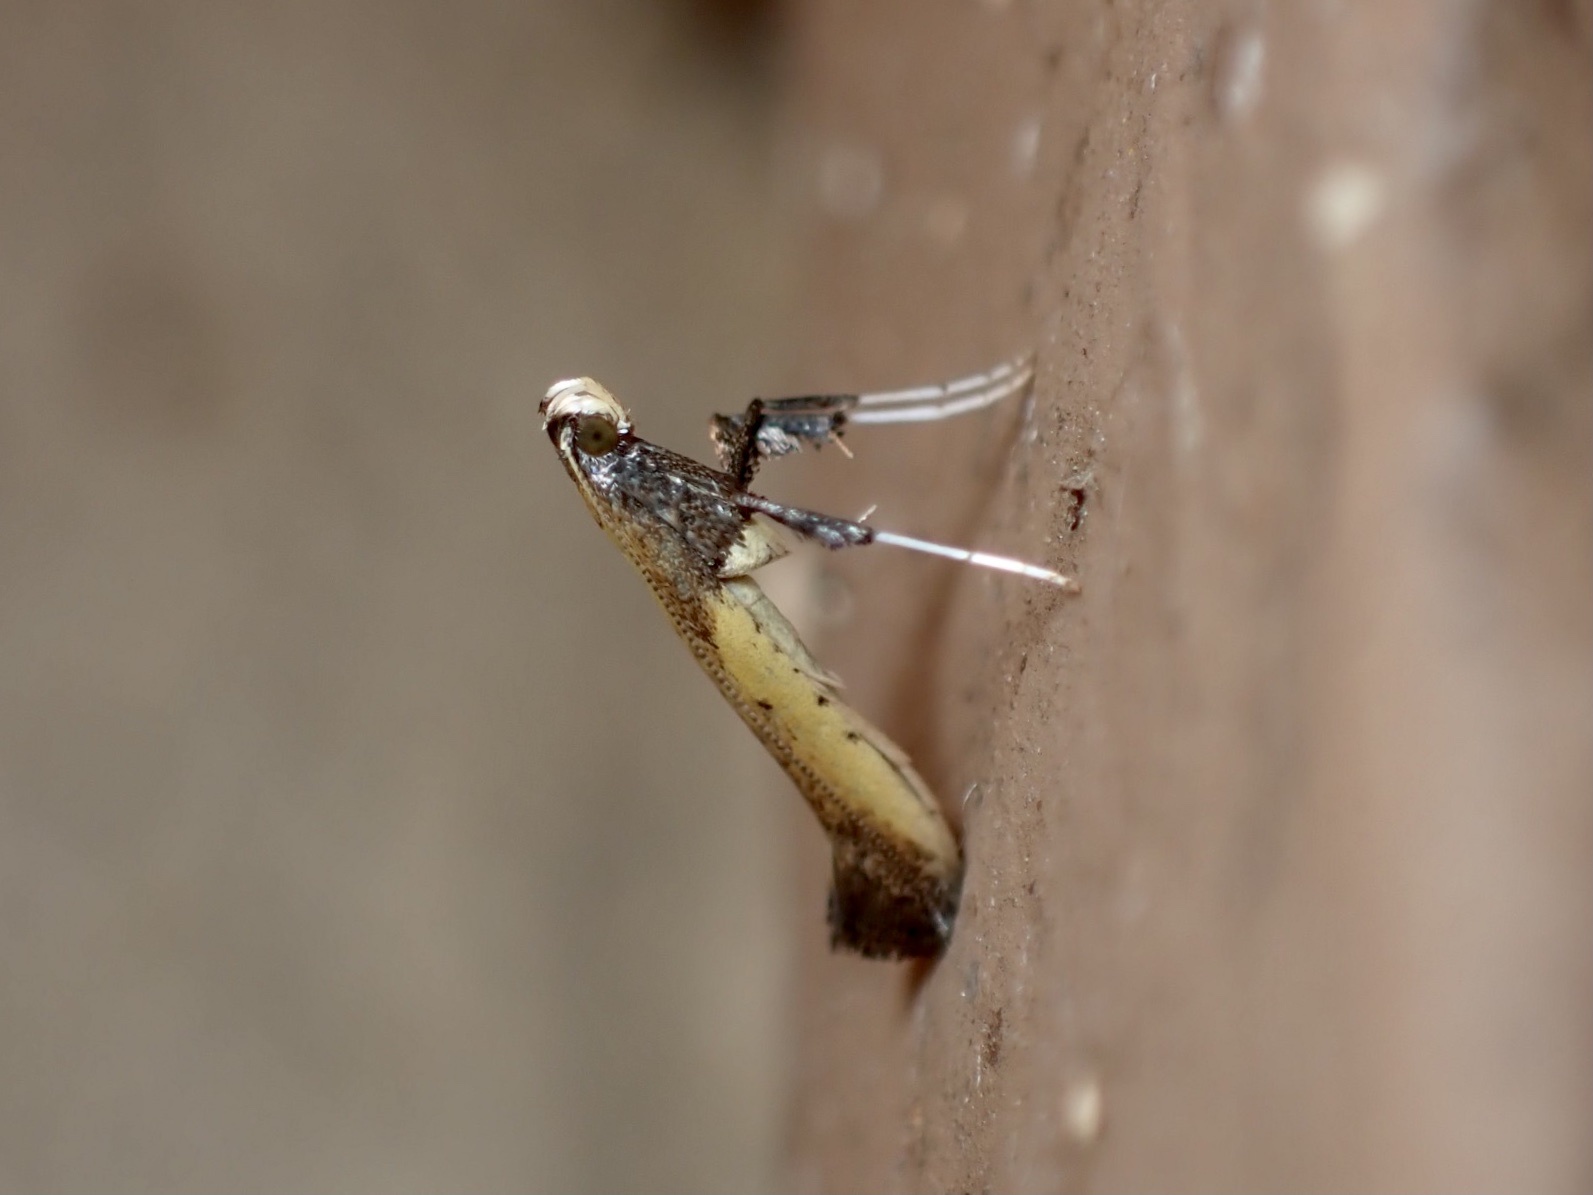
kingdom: Animalia
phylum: Arthropoda
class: Insecta
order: Lepidoptera
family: Gracillariidae
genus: Caloptilia
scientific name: Caloptilia azaleella
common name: Azalea leafminer
